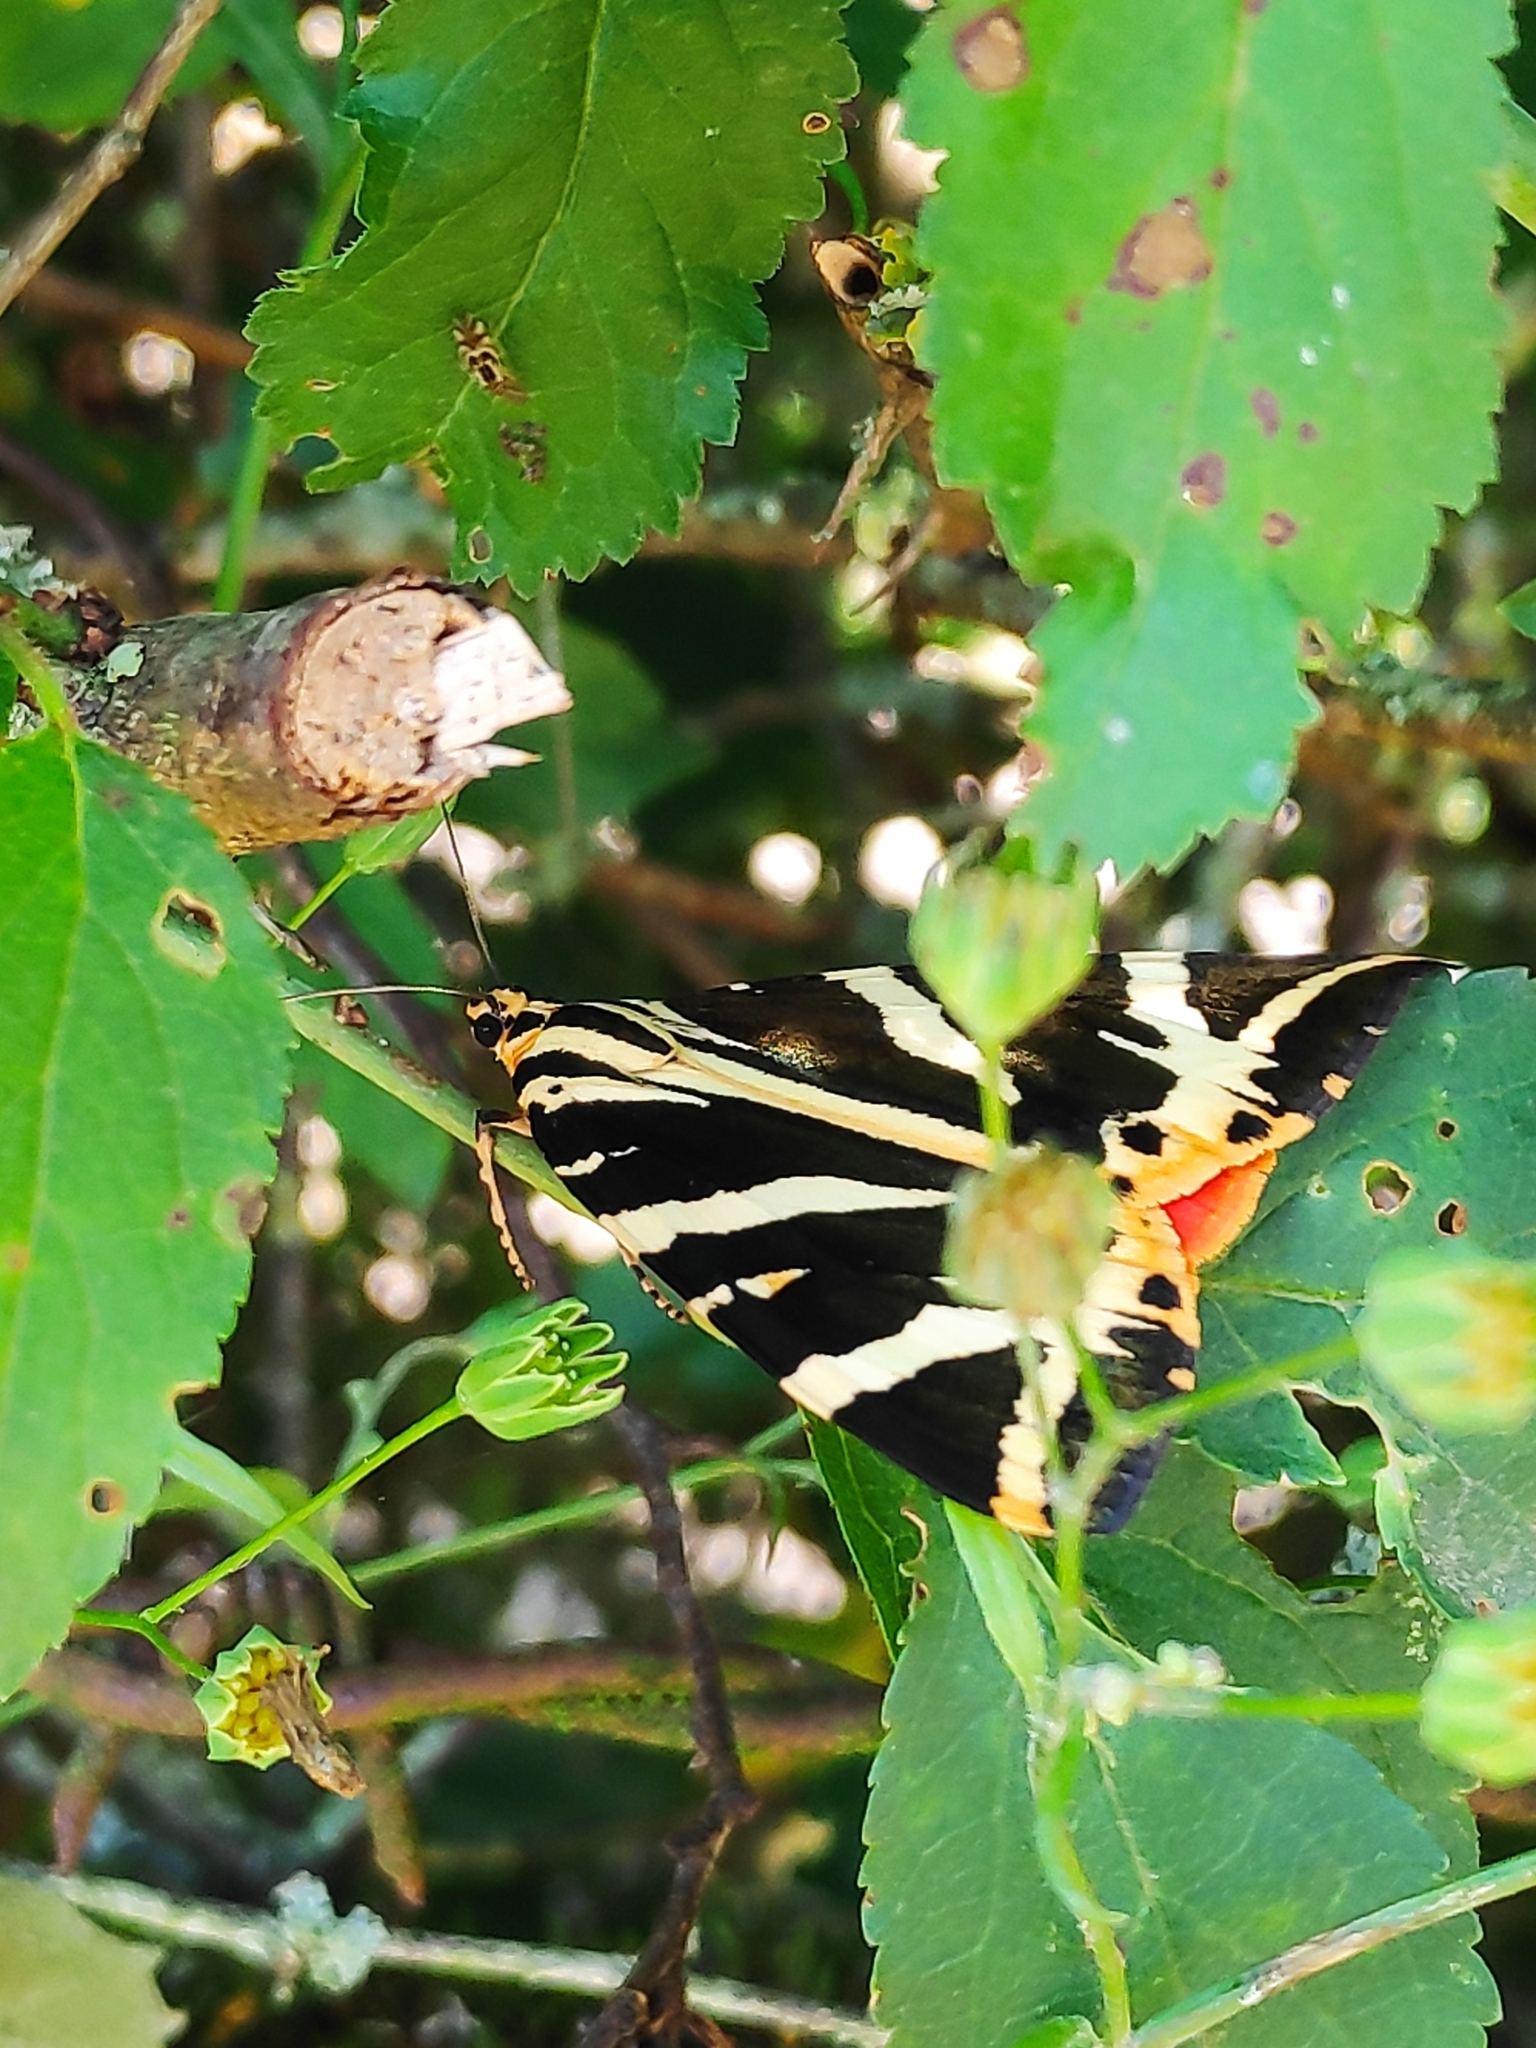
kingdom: Animalia
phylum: Arthropoda
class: Insecta
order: Lepidoptera
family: Erebidae
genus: Euplagia
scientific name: Euplagia quadripunctaria
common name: Jersey tiger
